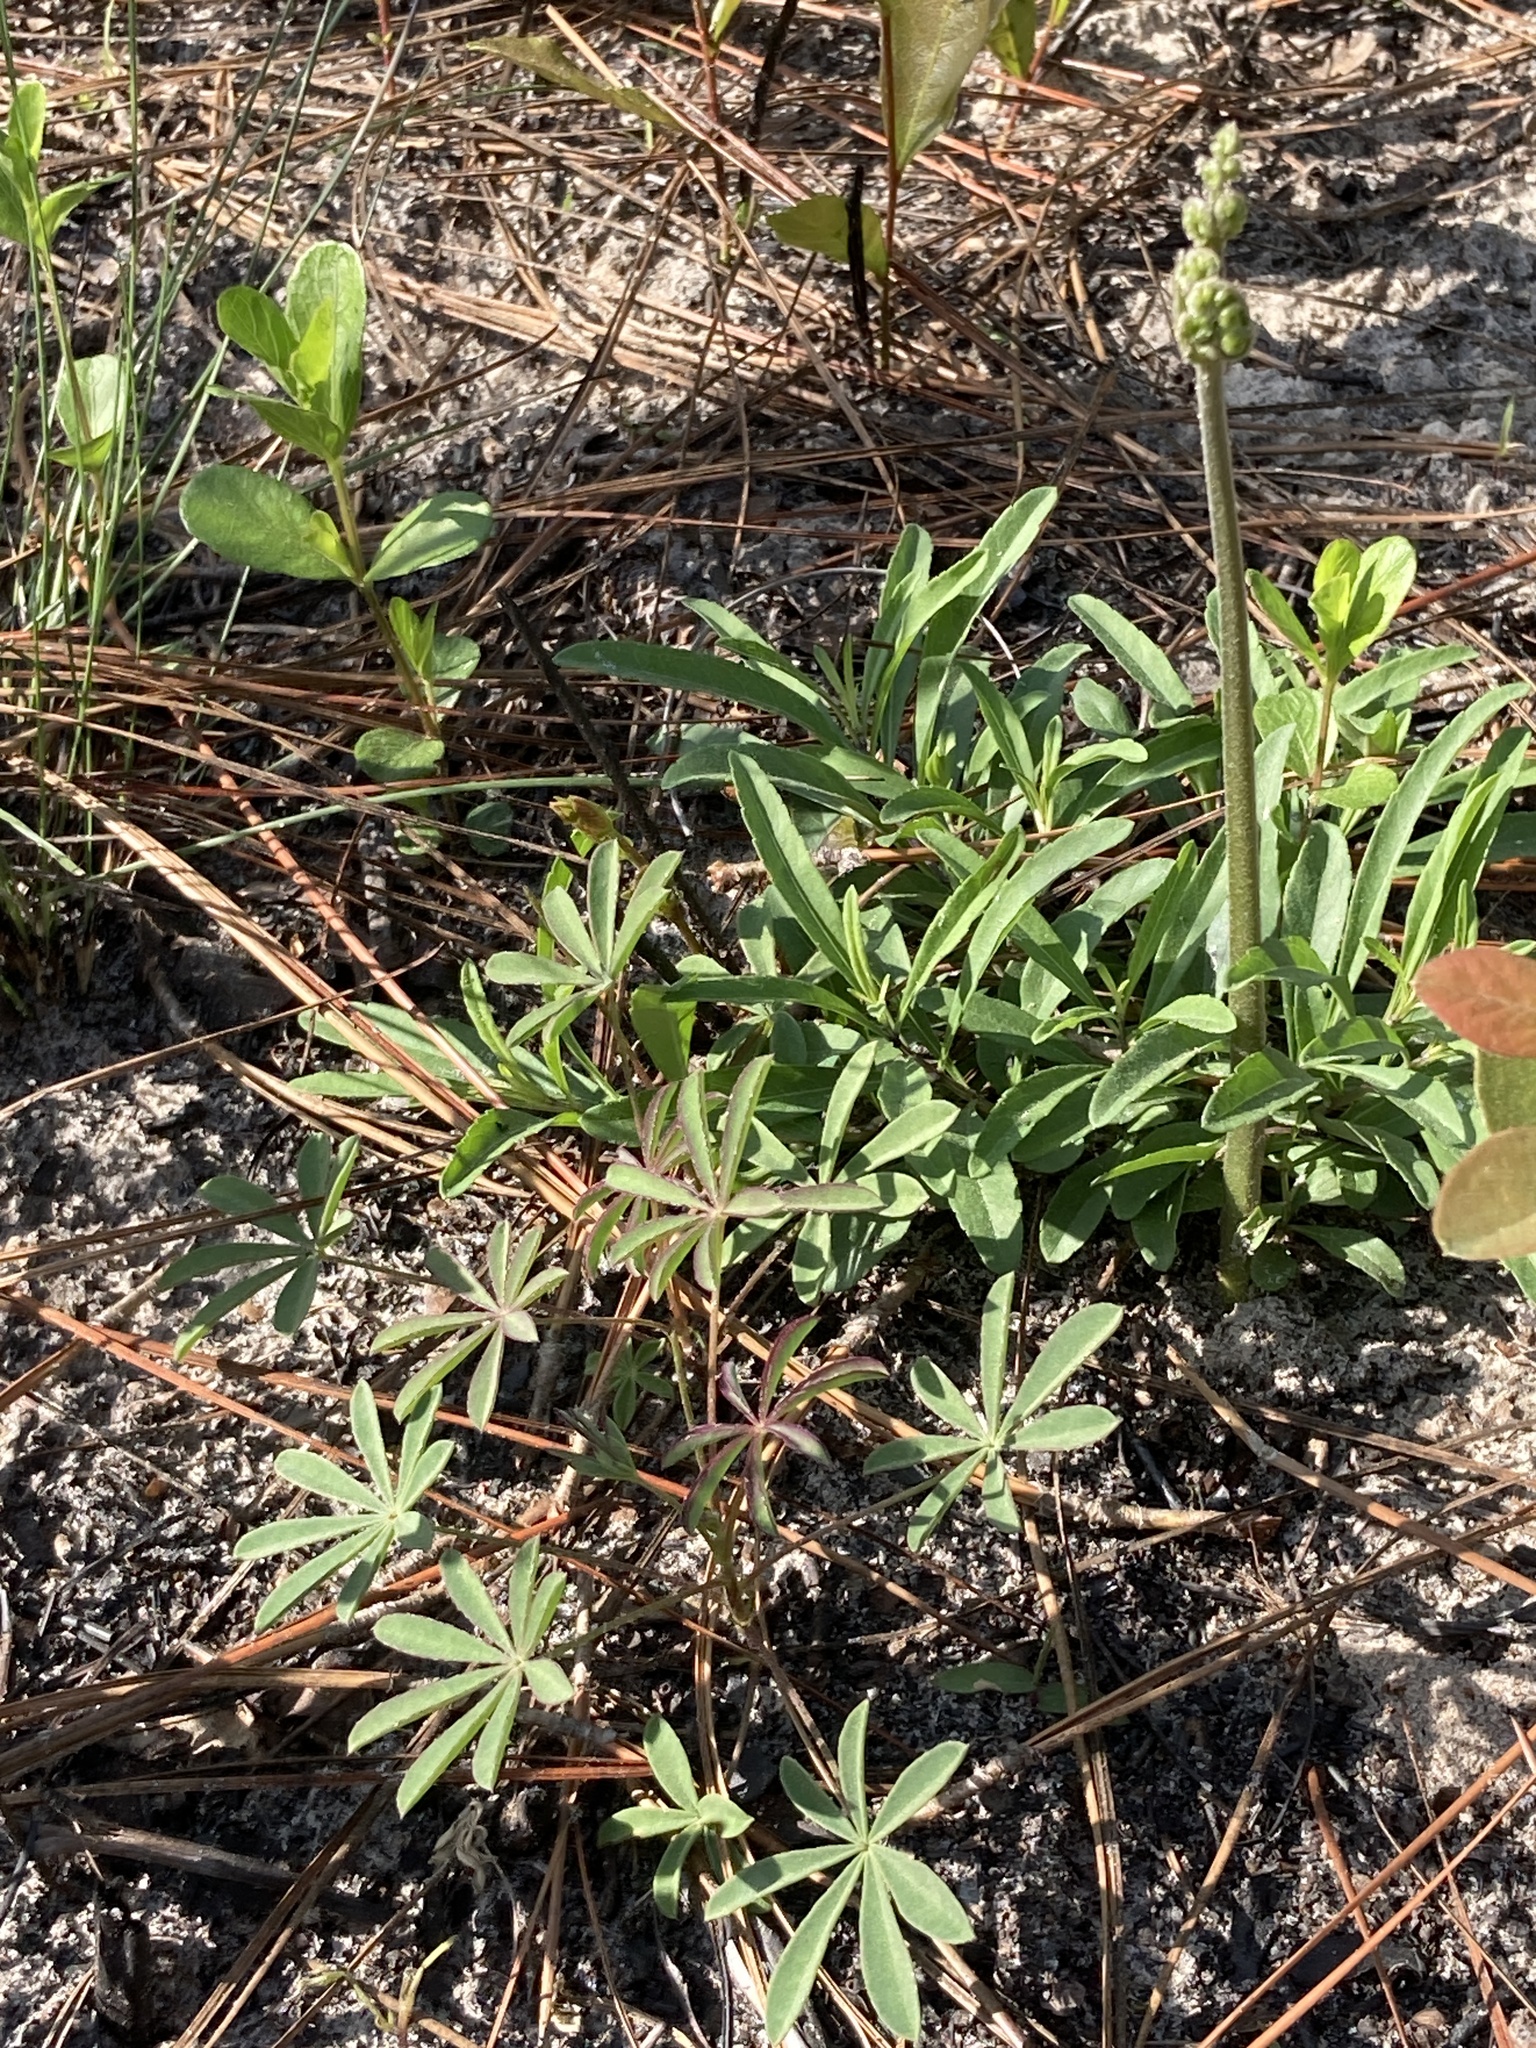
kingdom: Plantae
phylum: Tracheophyta
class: Magnoliopsida
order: Fabales
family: Fabaceae
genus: Lupinus
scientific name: Lupinus perennis
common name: Sundial lupine
